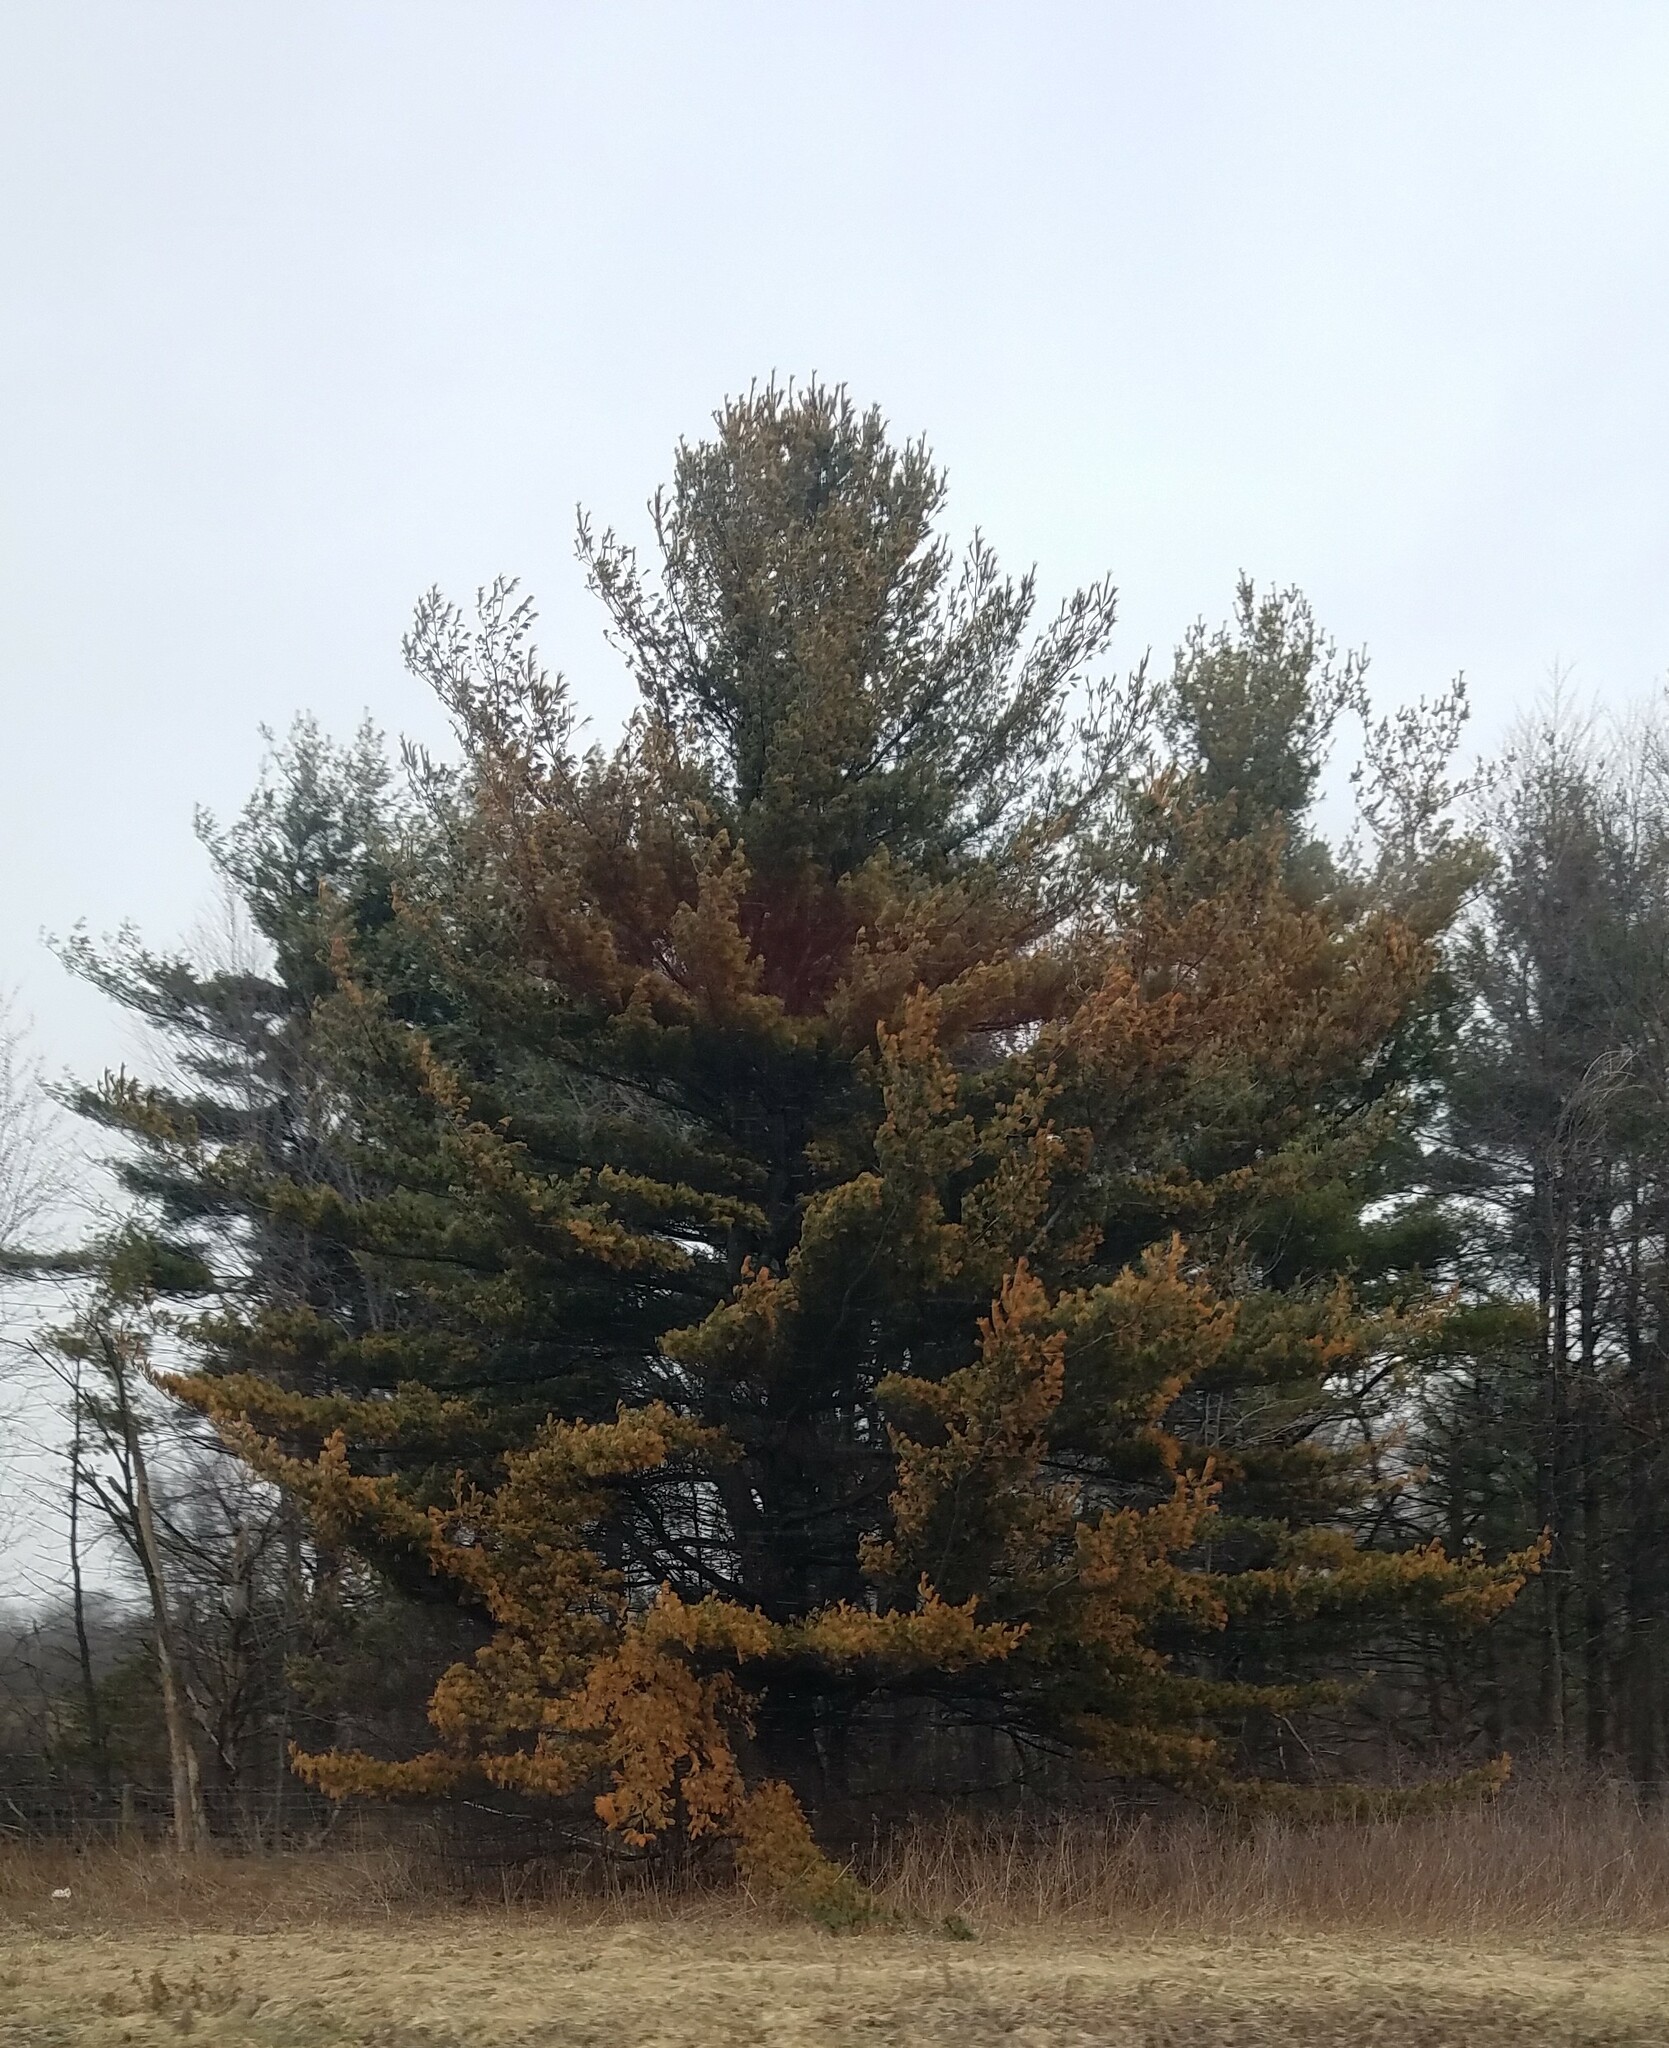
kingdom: Plantae
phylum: Tracheophyta
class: Pinopsida
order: Pinales
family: Pinaceae
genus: Pinus
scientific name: Pinus strobus
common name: Weymouth pine
